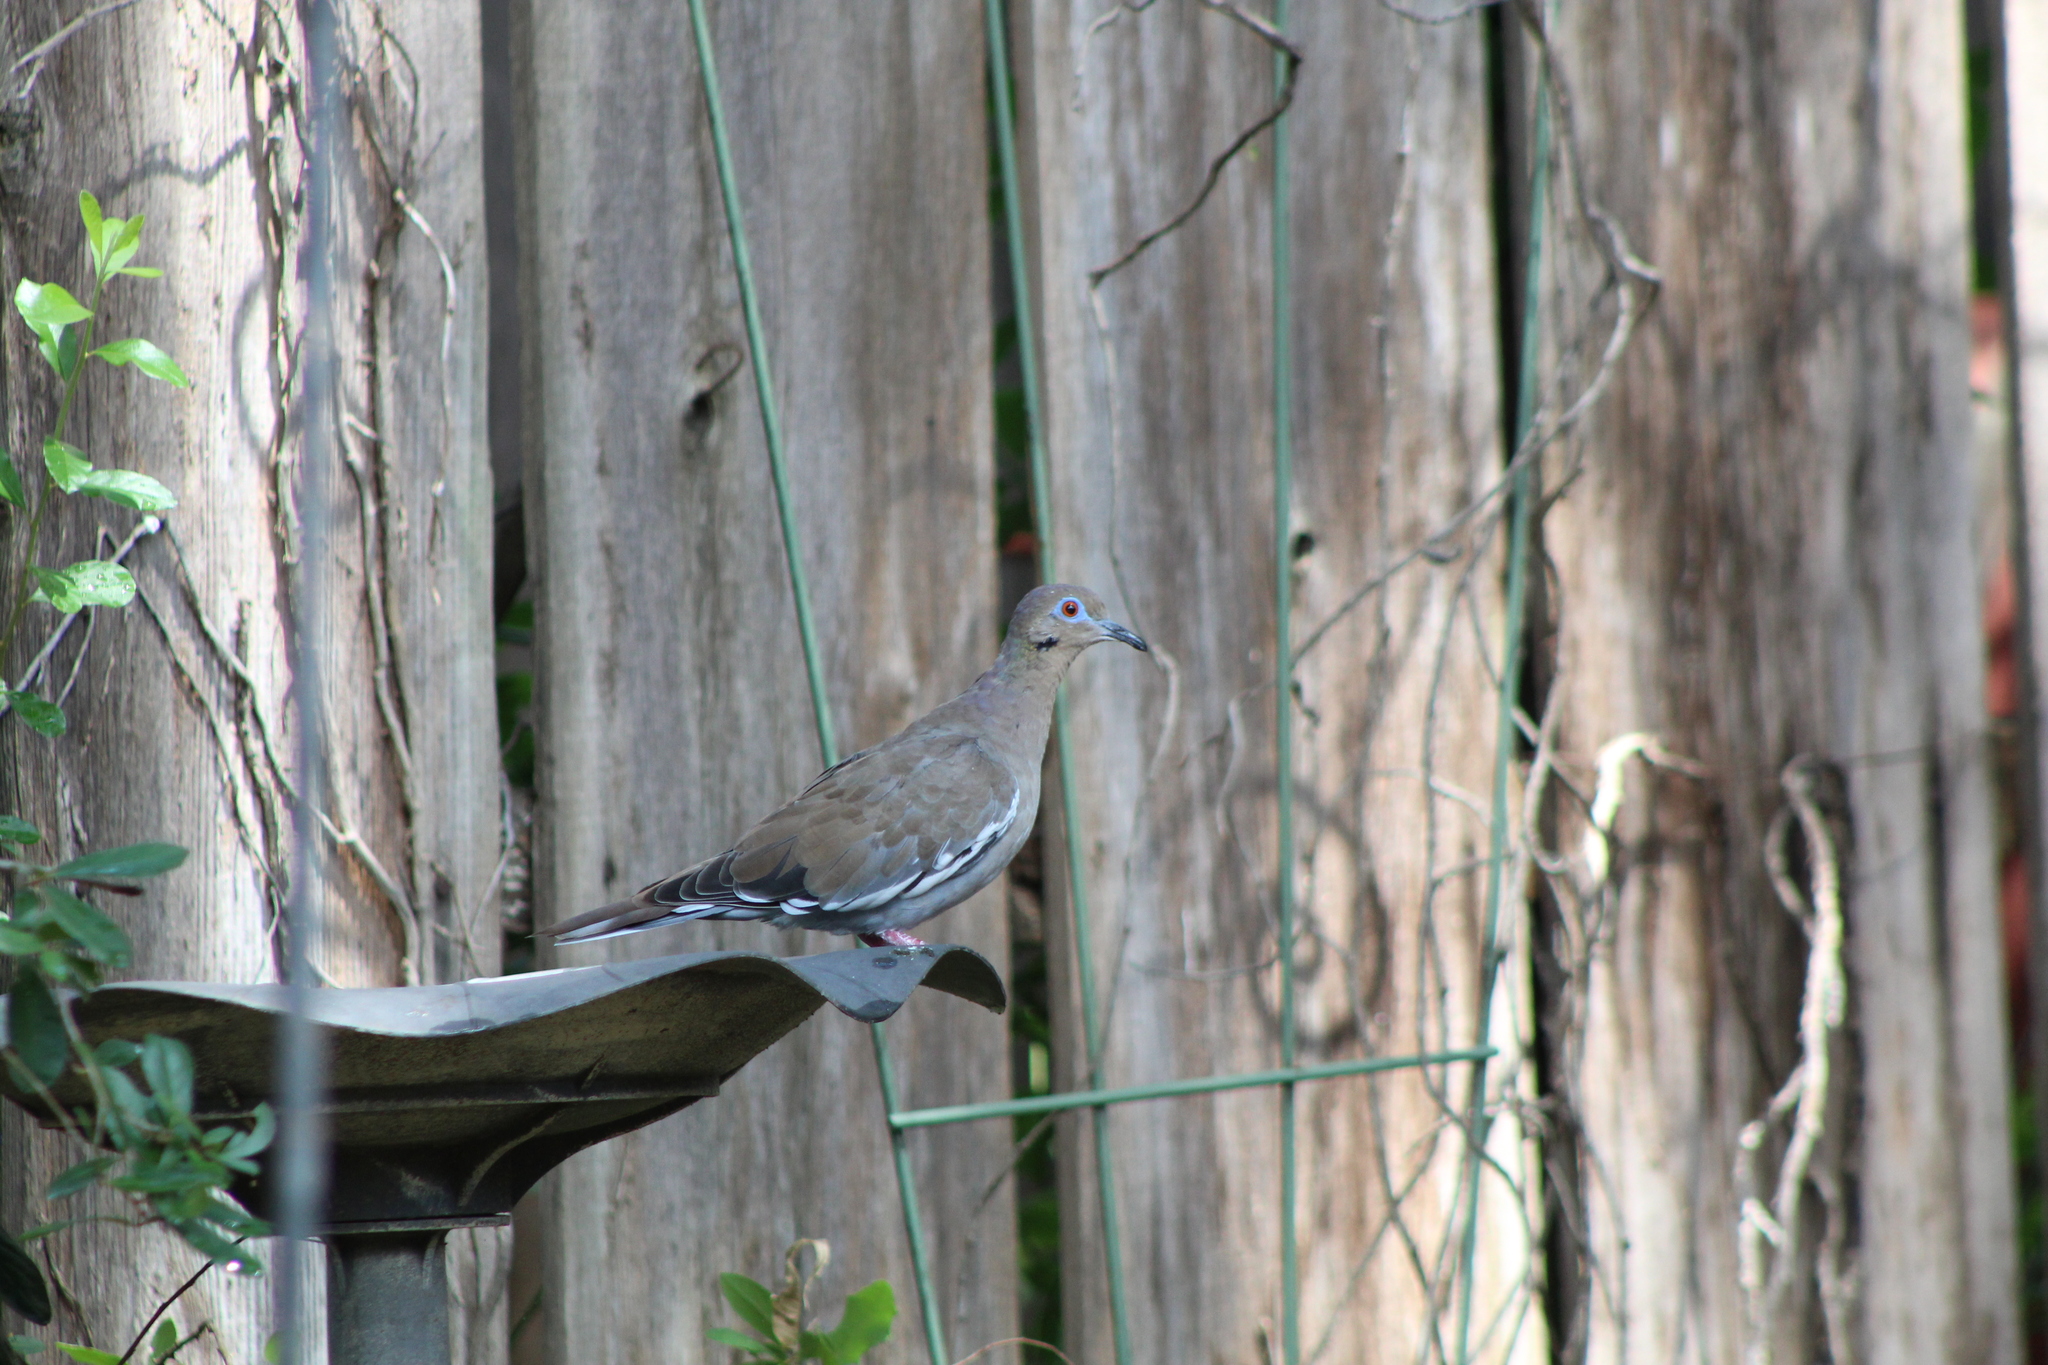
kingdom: Animalia
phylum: Chordata
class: Aves
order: Columbiformes
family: Columbidae
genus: Zenaida
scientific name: Zenaida asiatica
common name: White-winged dove
